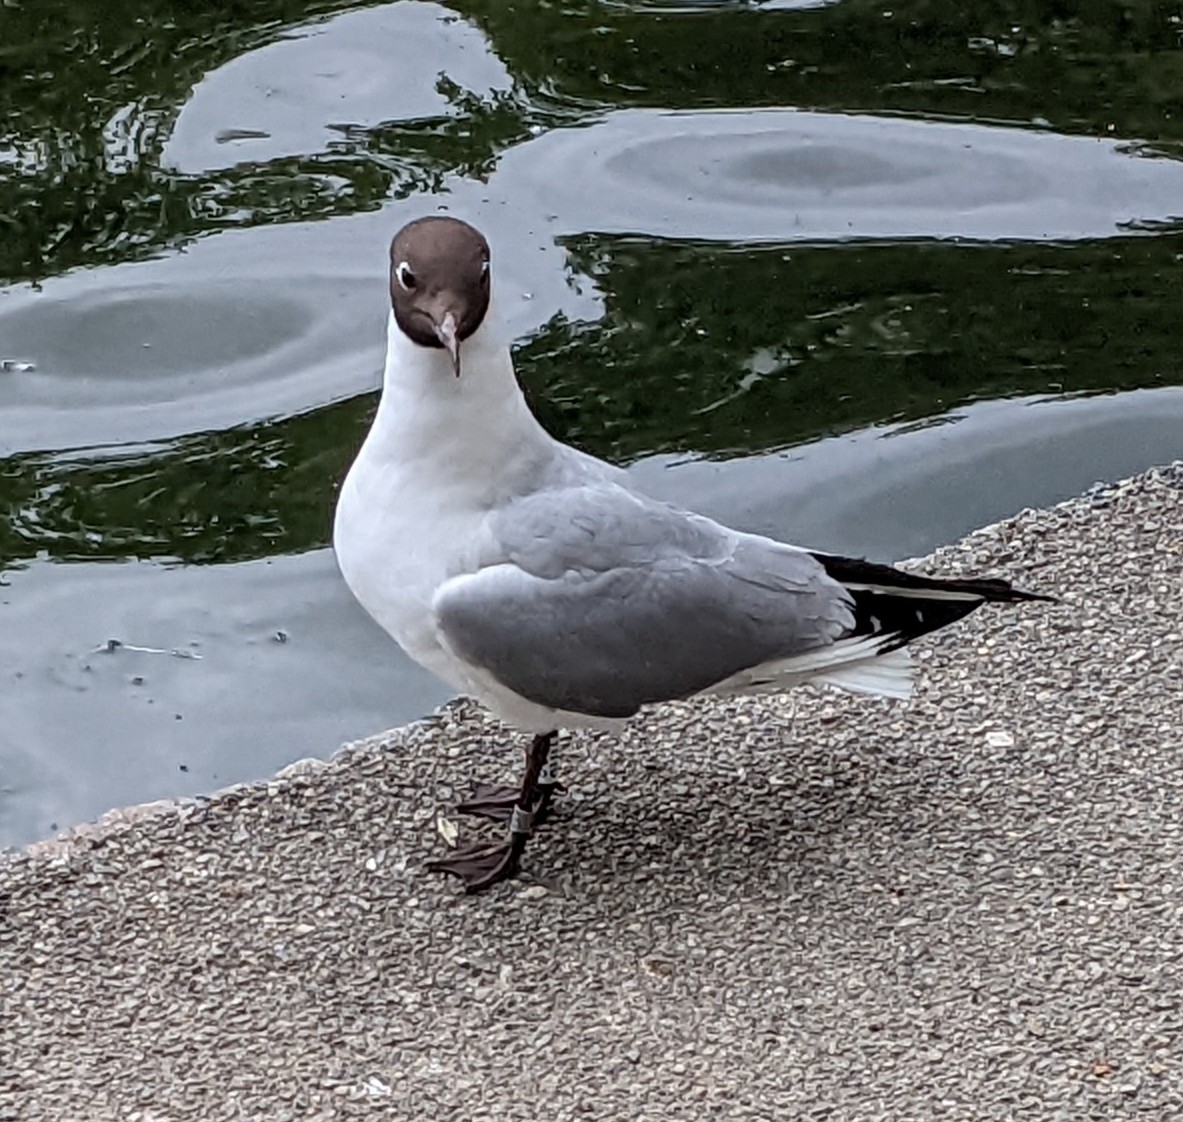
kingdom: Animalia
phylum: Chordata
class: Aves
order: Charadriiformes
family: Laridae
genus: Chroicocephalus
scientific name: Chroicocephalus ridibundus
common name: Black-headed gull
